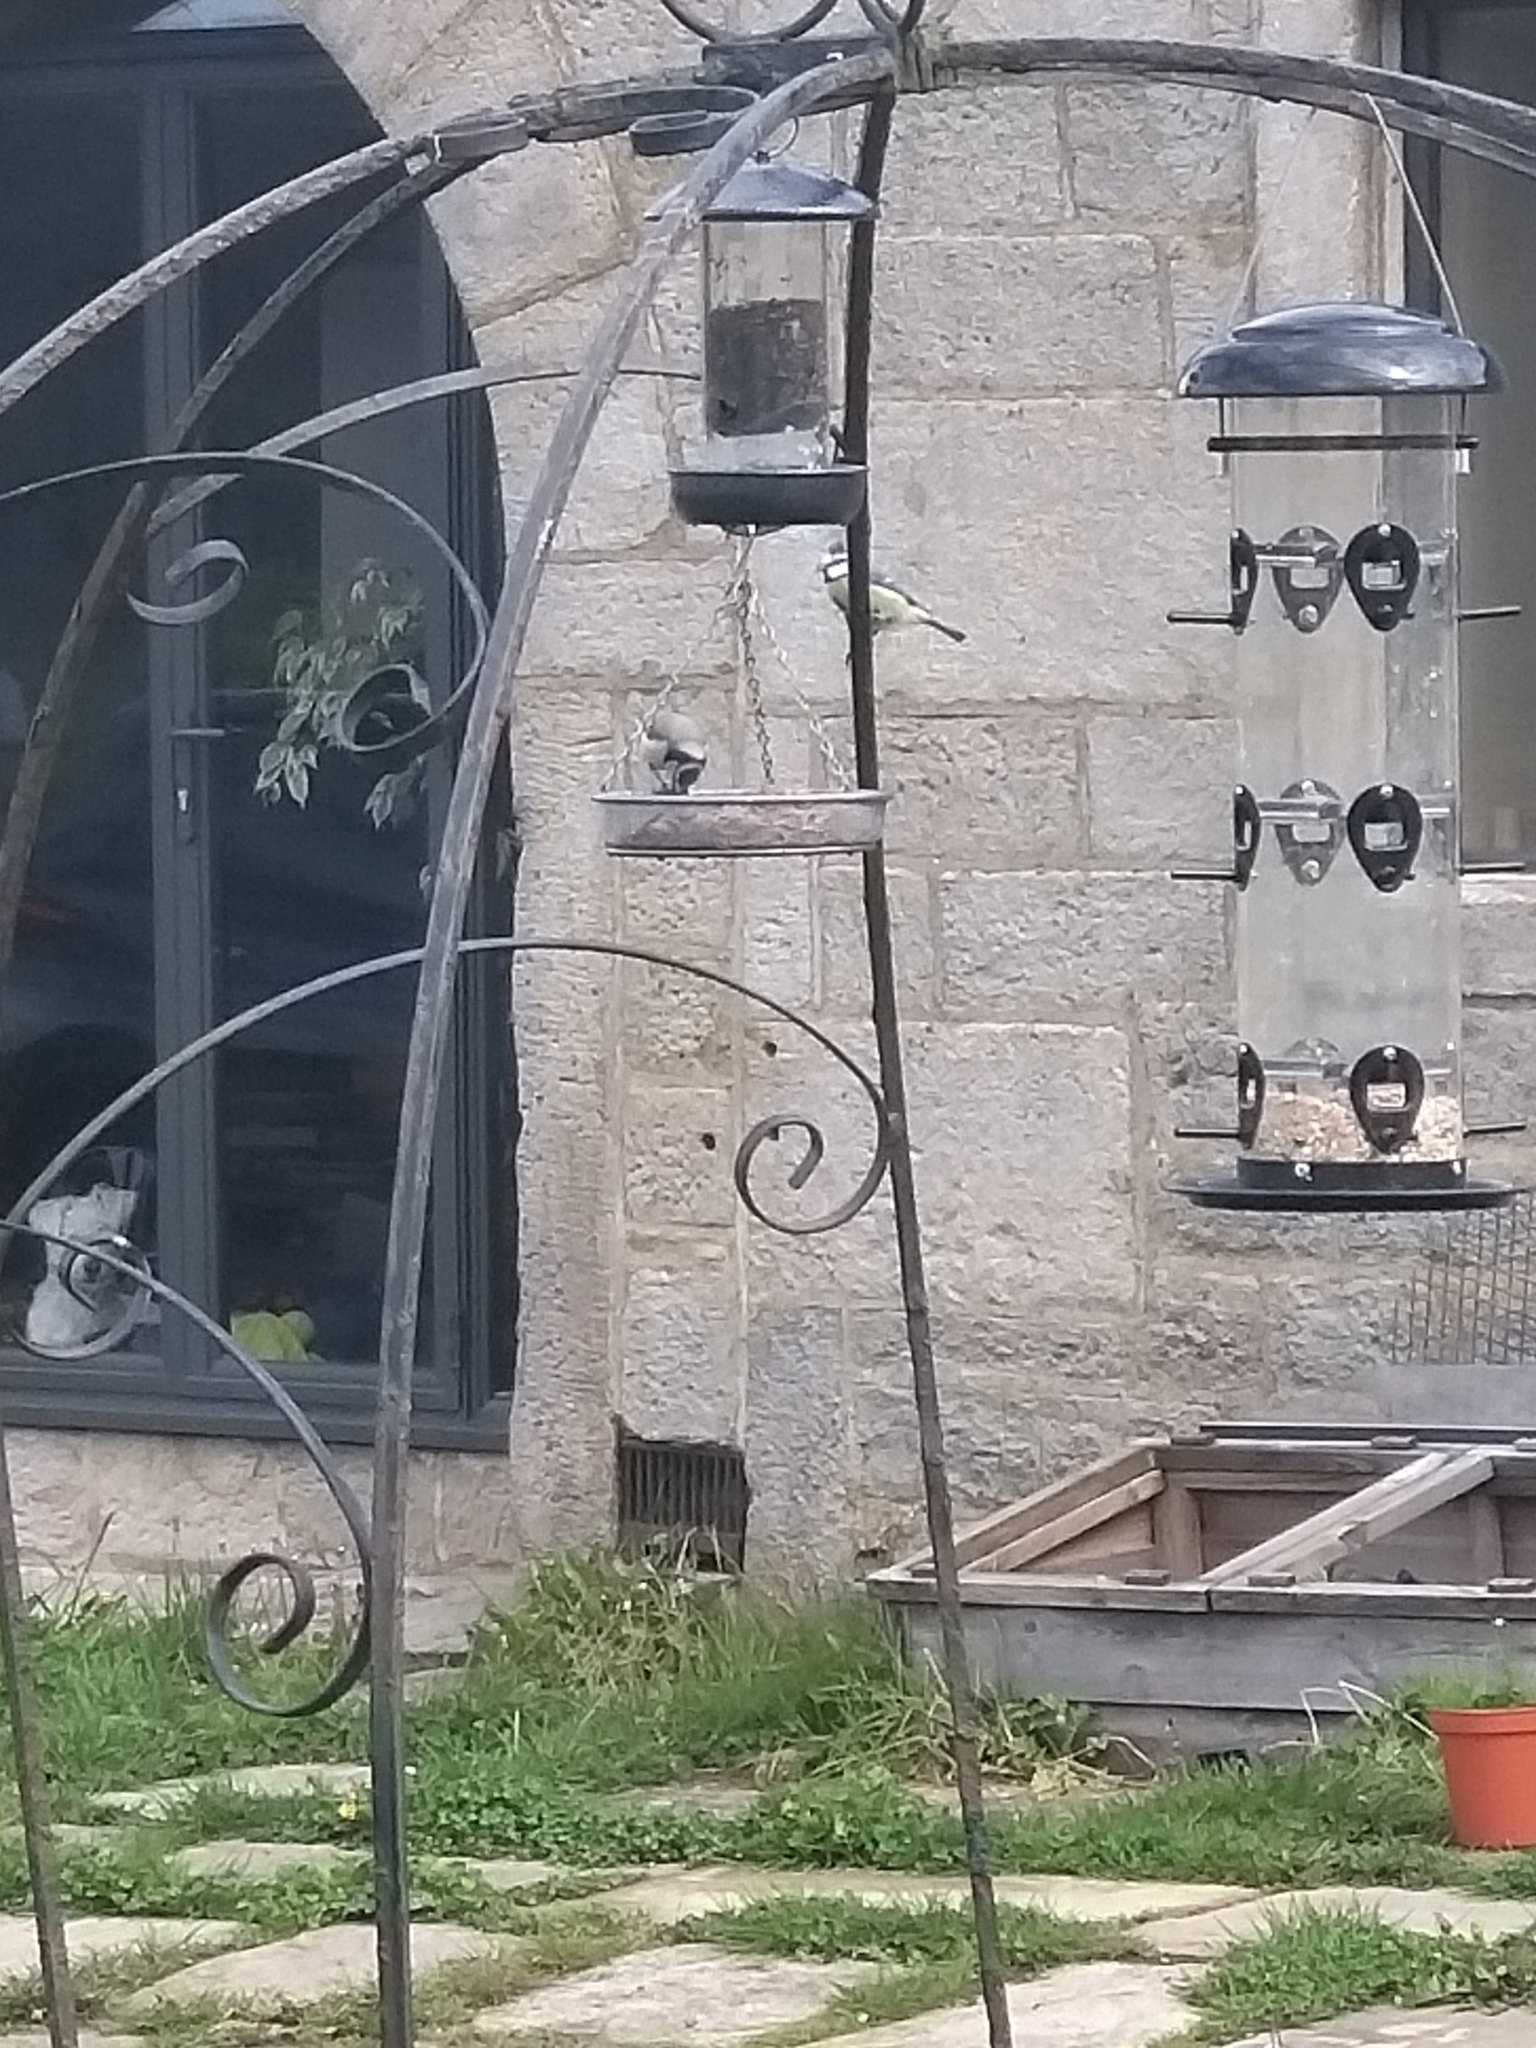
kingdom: Animalia
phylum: Chordata
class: Aves
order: Passeriformes
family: Paridae
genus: Cyanistes
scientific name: Cyanistes caeruleus
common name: Eurasian blue tit
